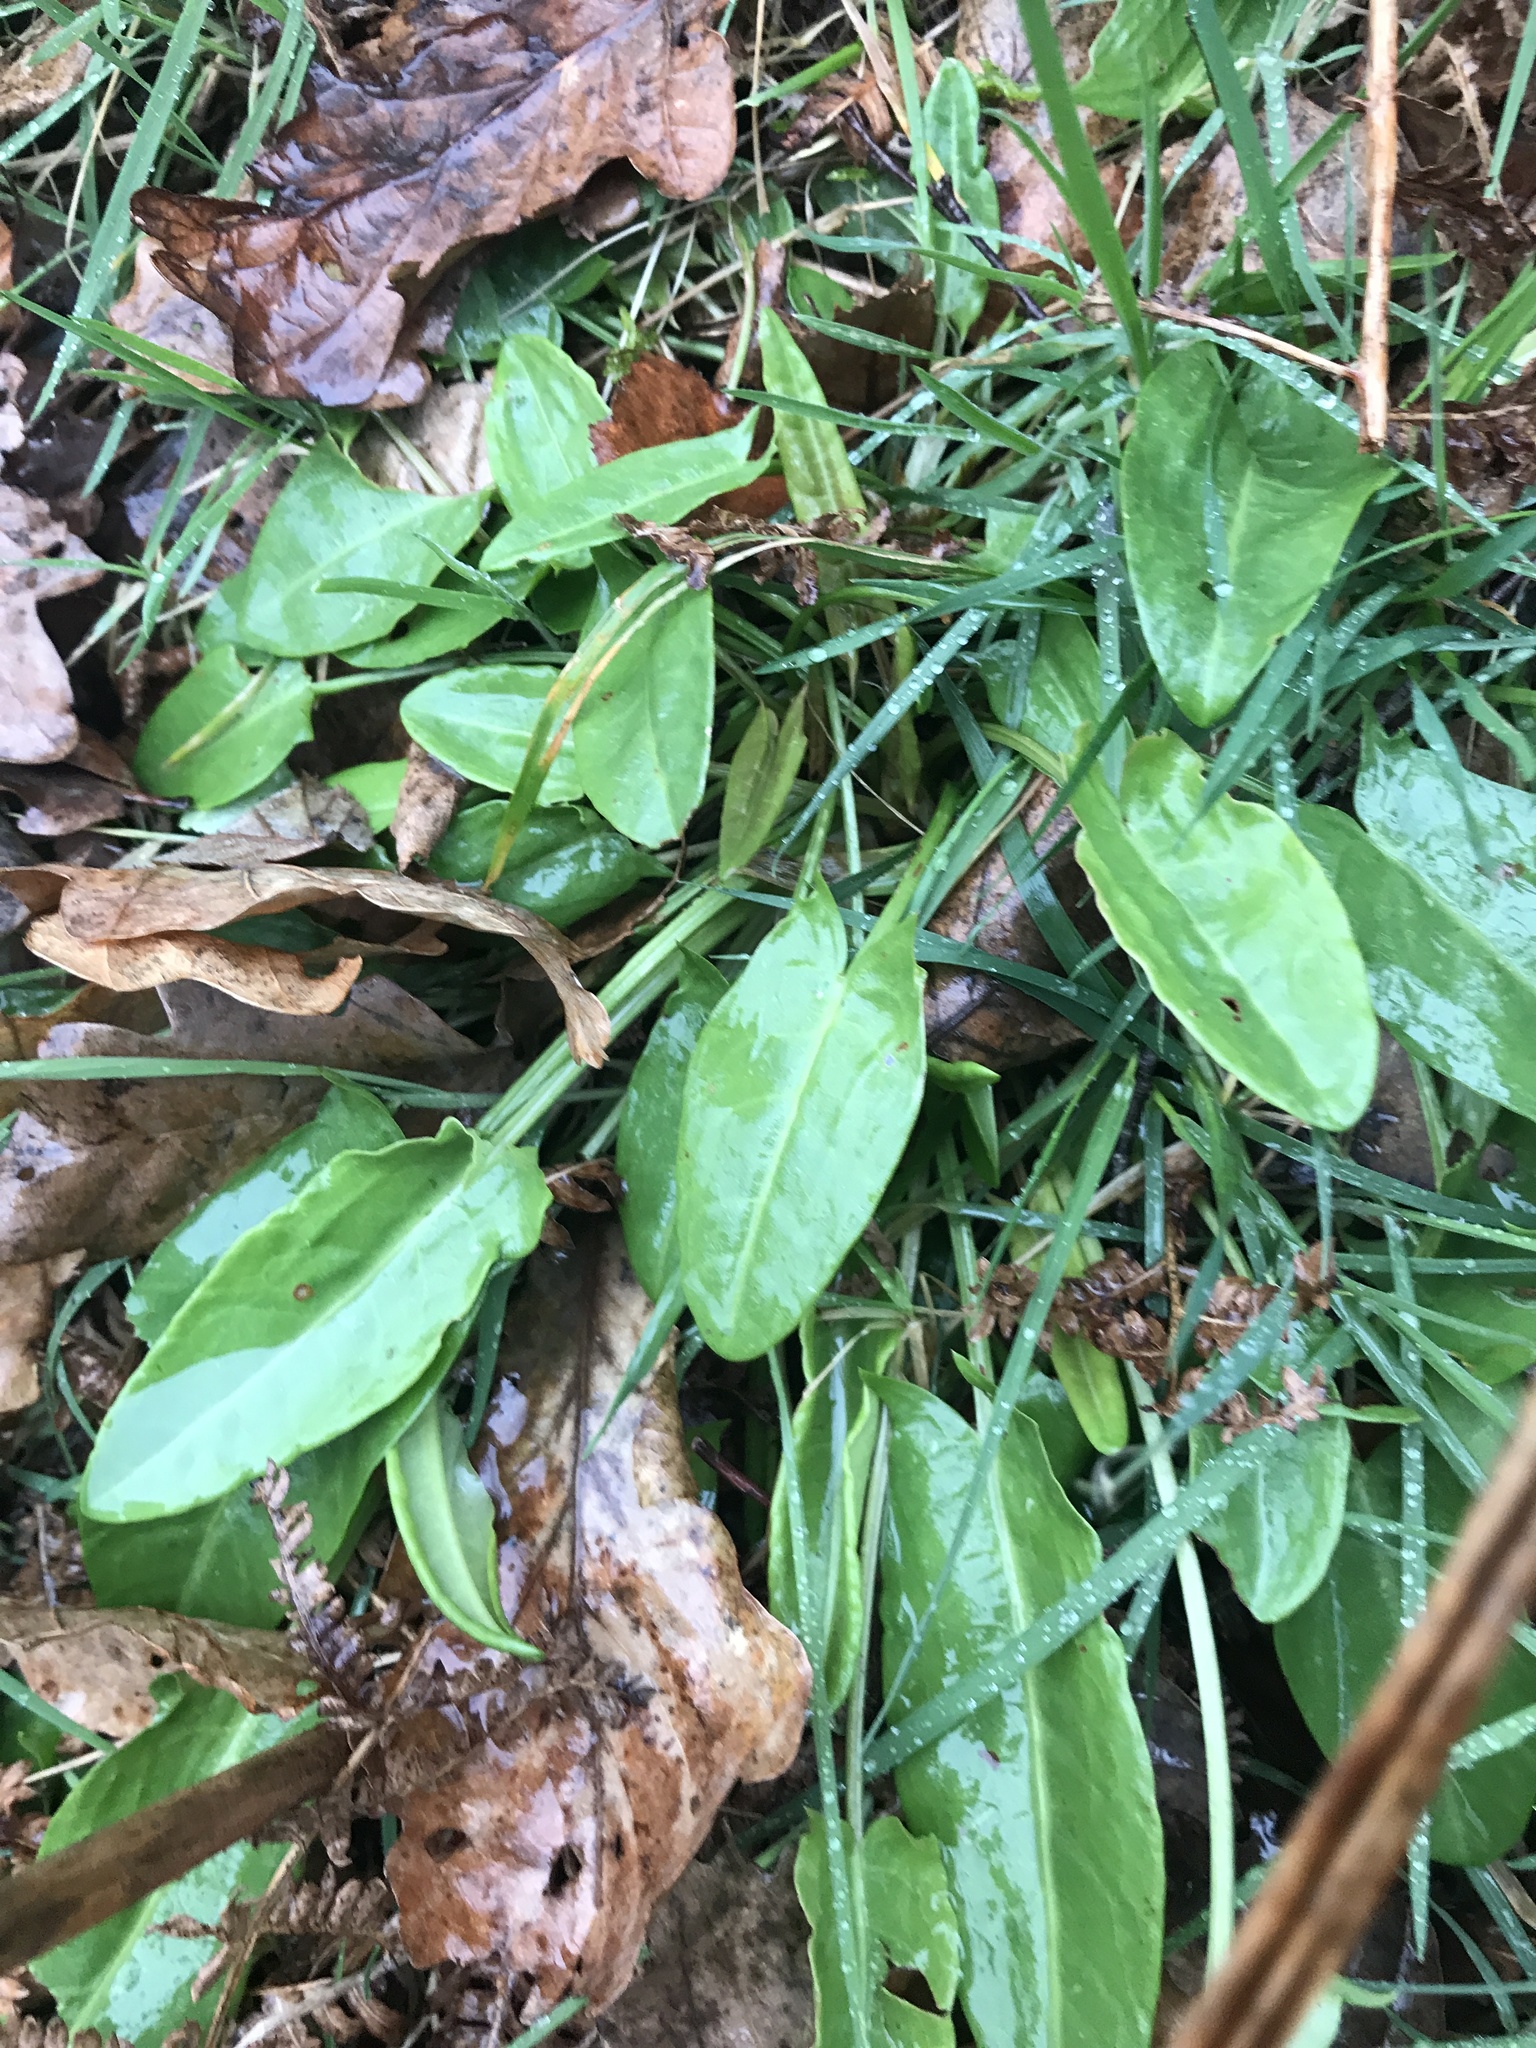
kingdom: Plantae
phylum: Tracheophyta
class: Magnoliopsida
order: Caryophyllales
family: Polygonaceae
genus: Rumex
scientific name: Rumex acetosa
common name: Garden sorrel
